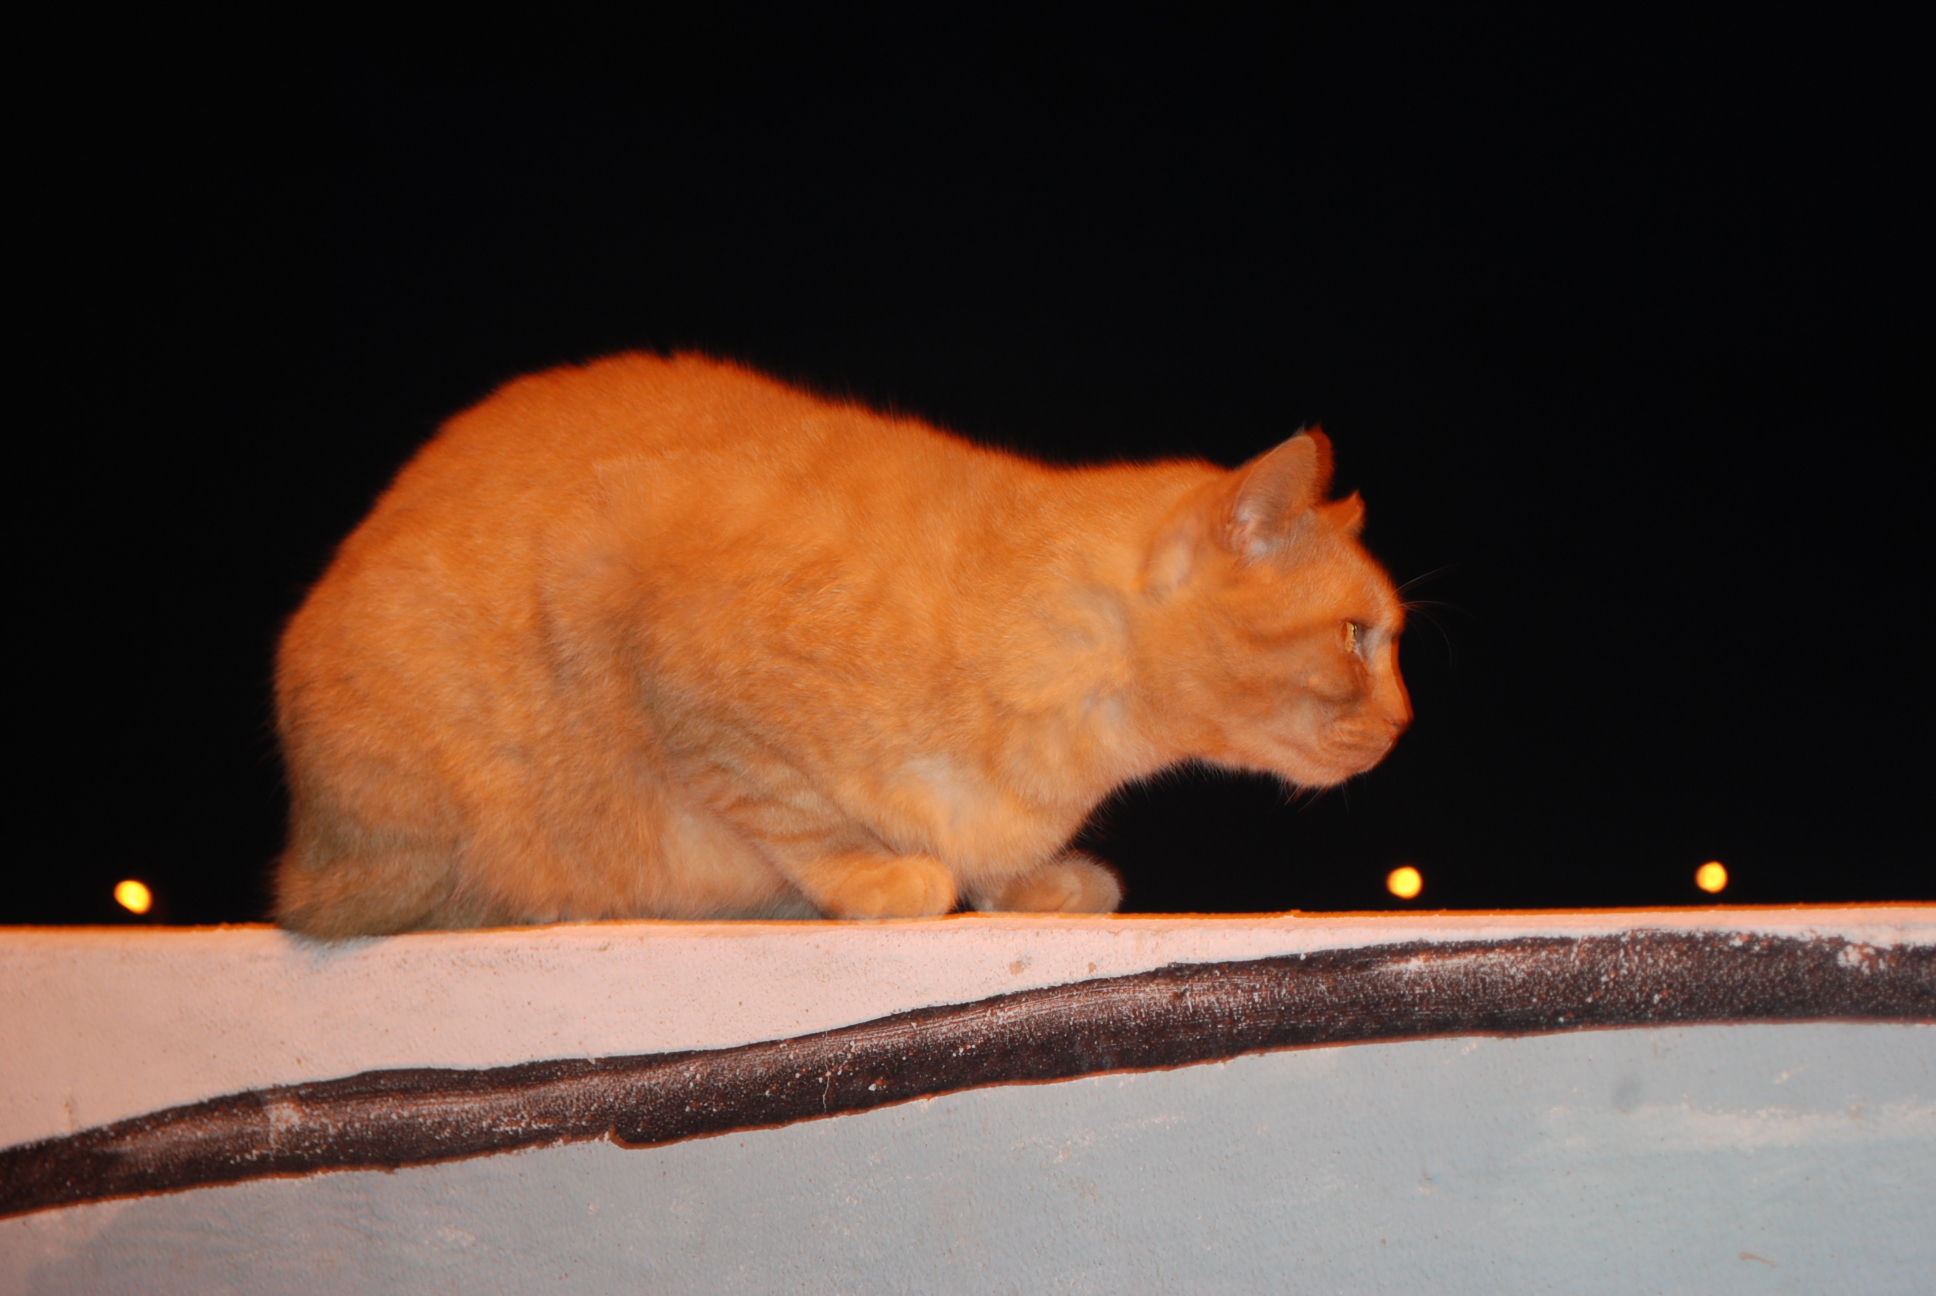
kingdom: Animalia
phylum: Chordata
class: Mammalia
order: Carnivora
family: Felidae
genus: Felis
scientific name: Felis catus
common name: Domestic cat
